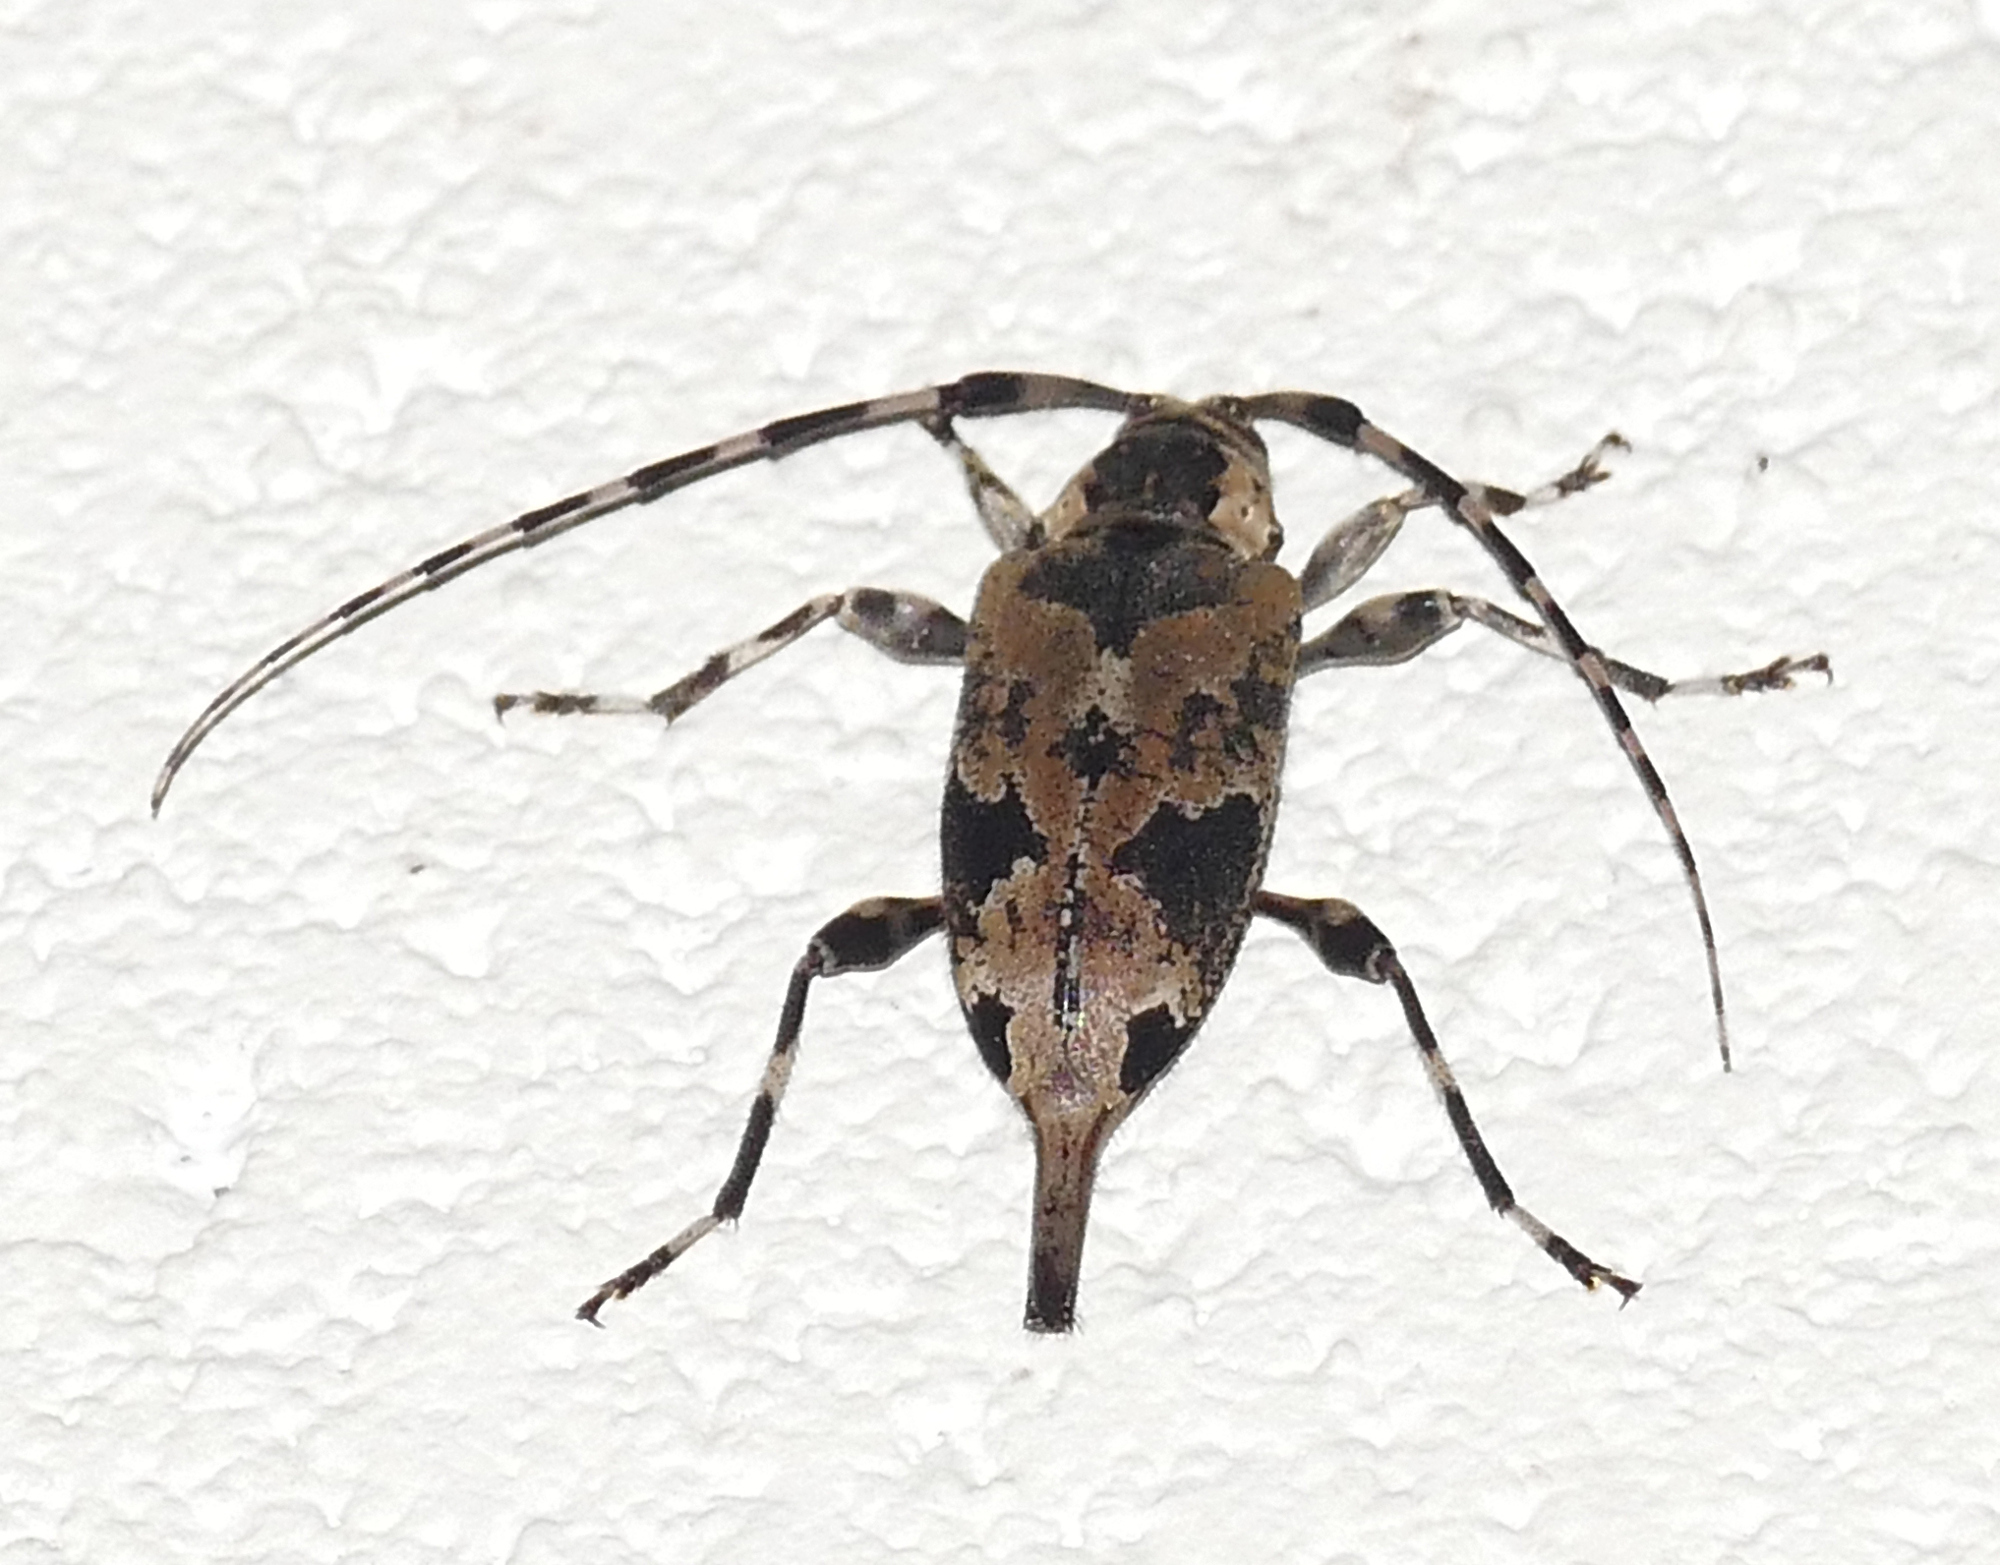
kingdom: Animalia
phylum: Arthropoda
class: Insecta
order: Coleoptera
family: Cerambycidae
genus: Graphisurus
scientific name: Graphisurus triangulifer
